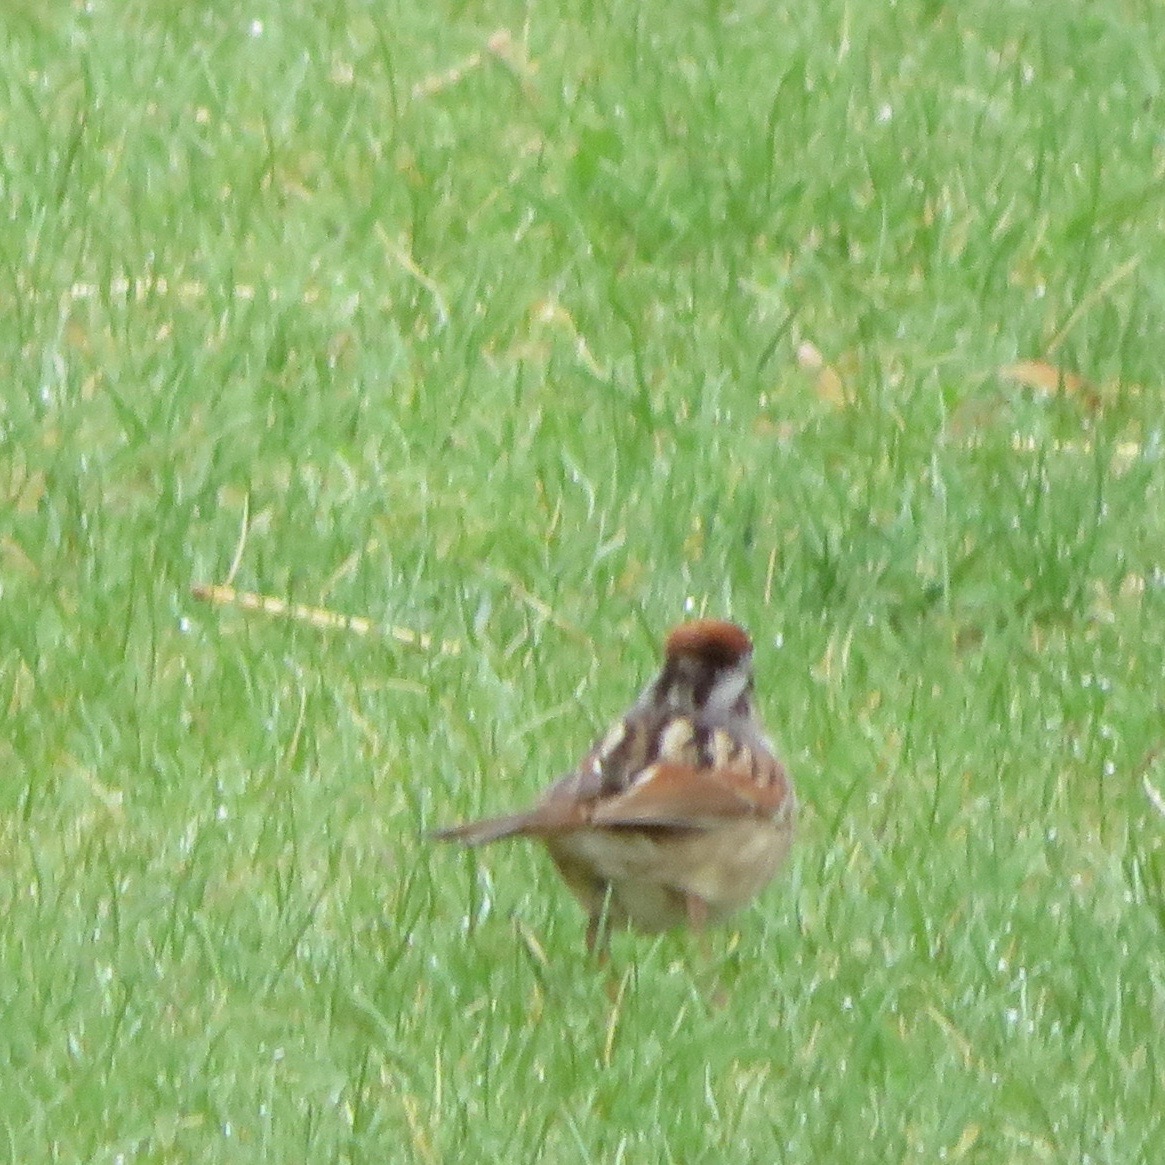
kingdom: Animalia
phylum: Chordata
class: Aves
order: Passeriformes
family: Passerellidae
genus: Melospiza
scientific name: Melospiza georgiana
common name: Swamp sparrow
